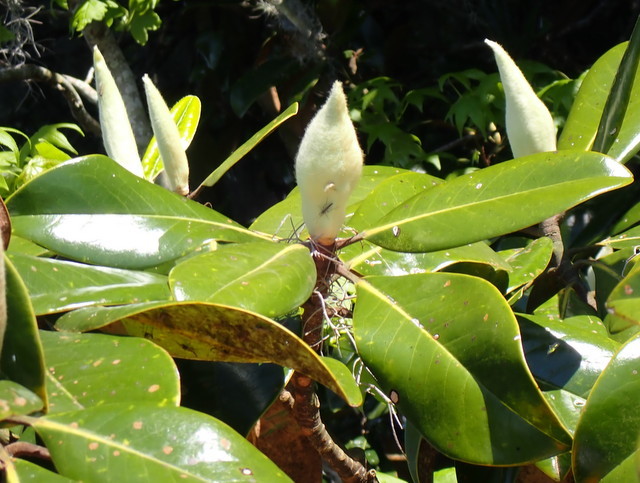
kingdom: Plantae
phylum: Tracheophyta
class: Magnoliopsida
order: Magnoliales
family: Magnoliaceae
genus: Magnolia
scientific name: Magnolia grandiflora
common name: Southern magnolia
